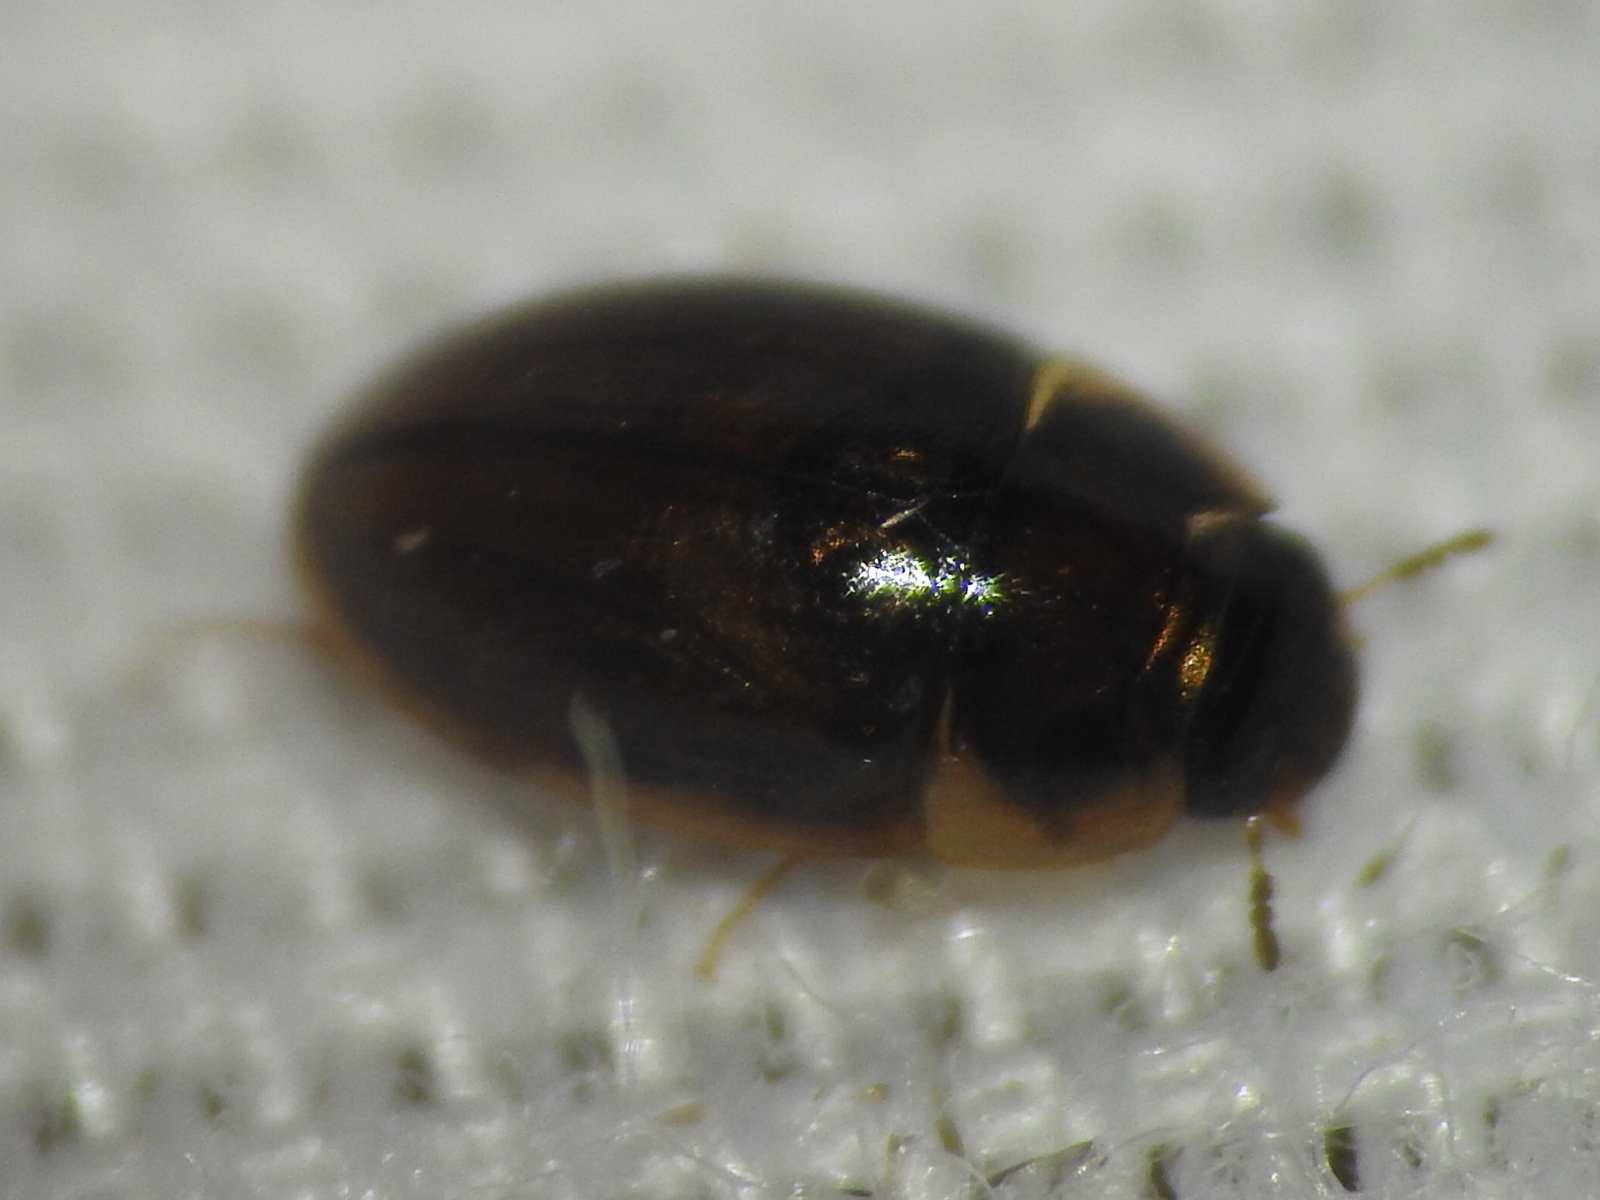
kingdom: Animalia
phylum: Arthropoda
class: Insecta
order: Coleoptera
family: Hydrophilidae
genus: Enochrus
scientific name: Enochrus
